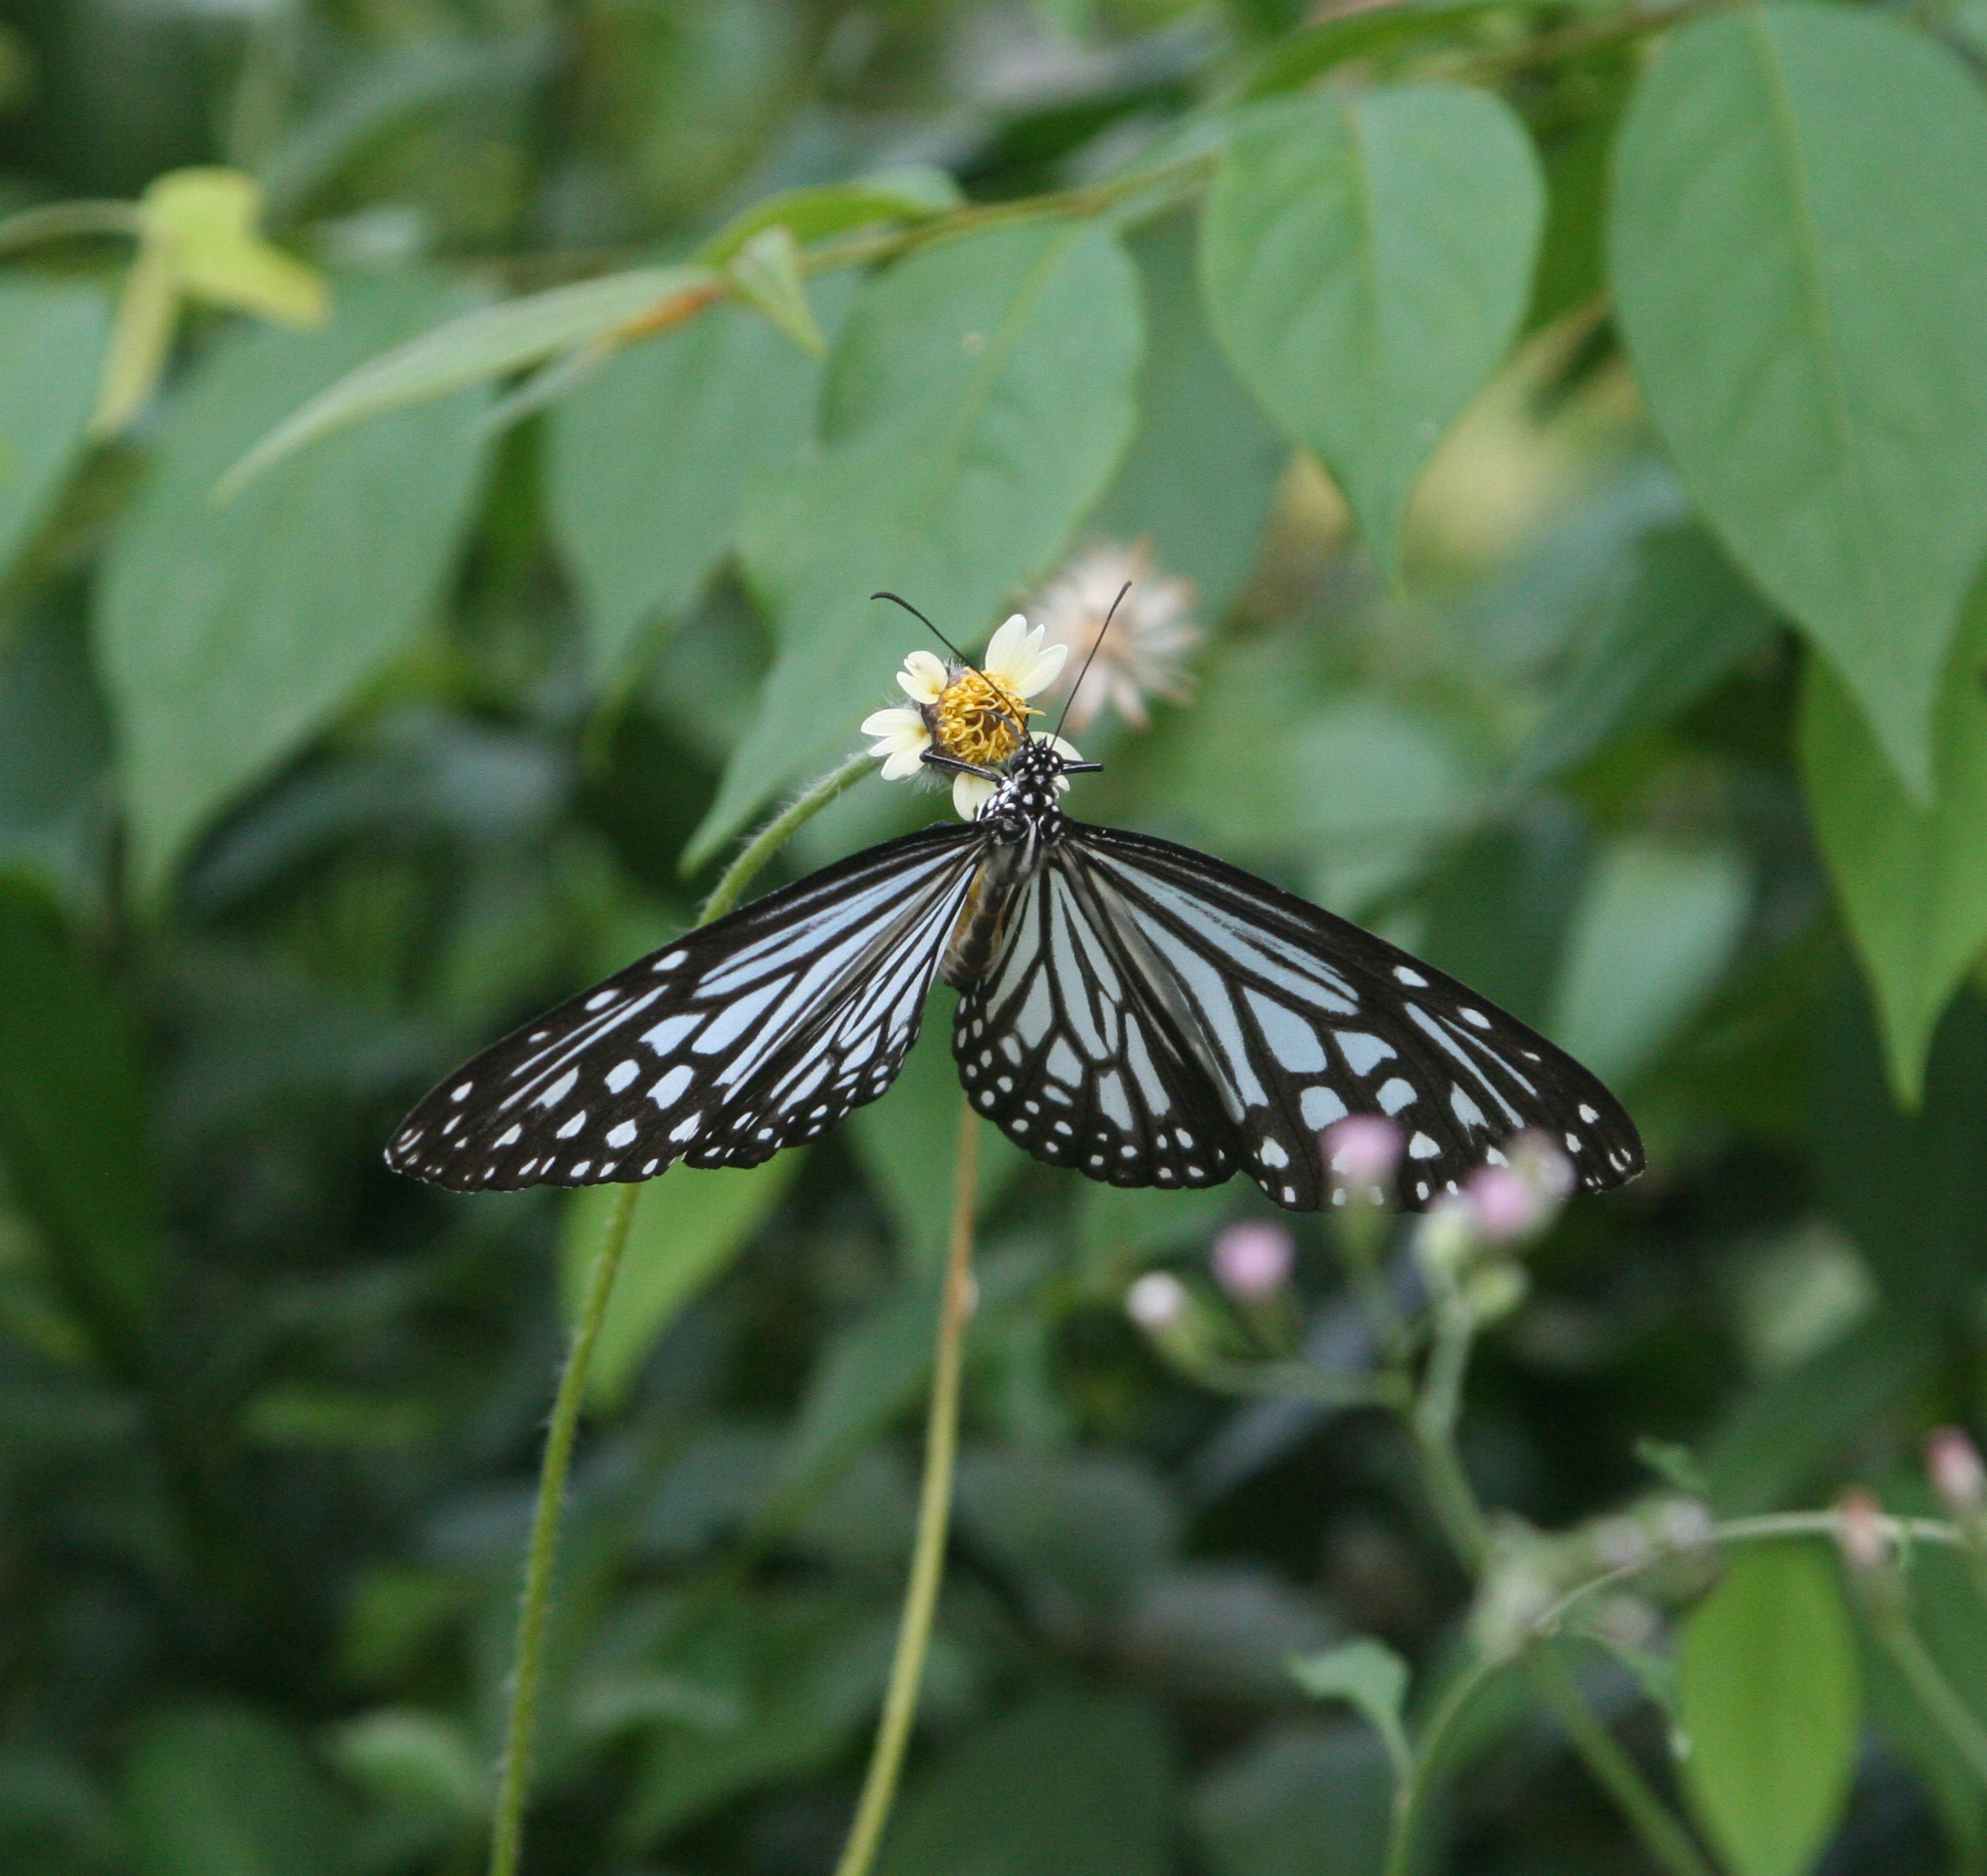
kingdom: Animalia
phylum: Arthropoda
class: Insecta
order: Lepidoptera
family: Nymphalidae
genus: Parantica
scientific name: Parantica agleoides
